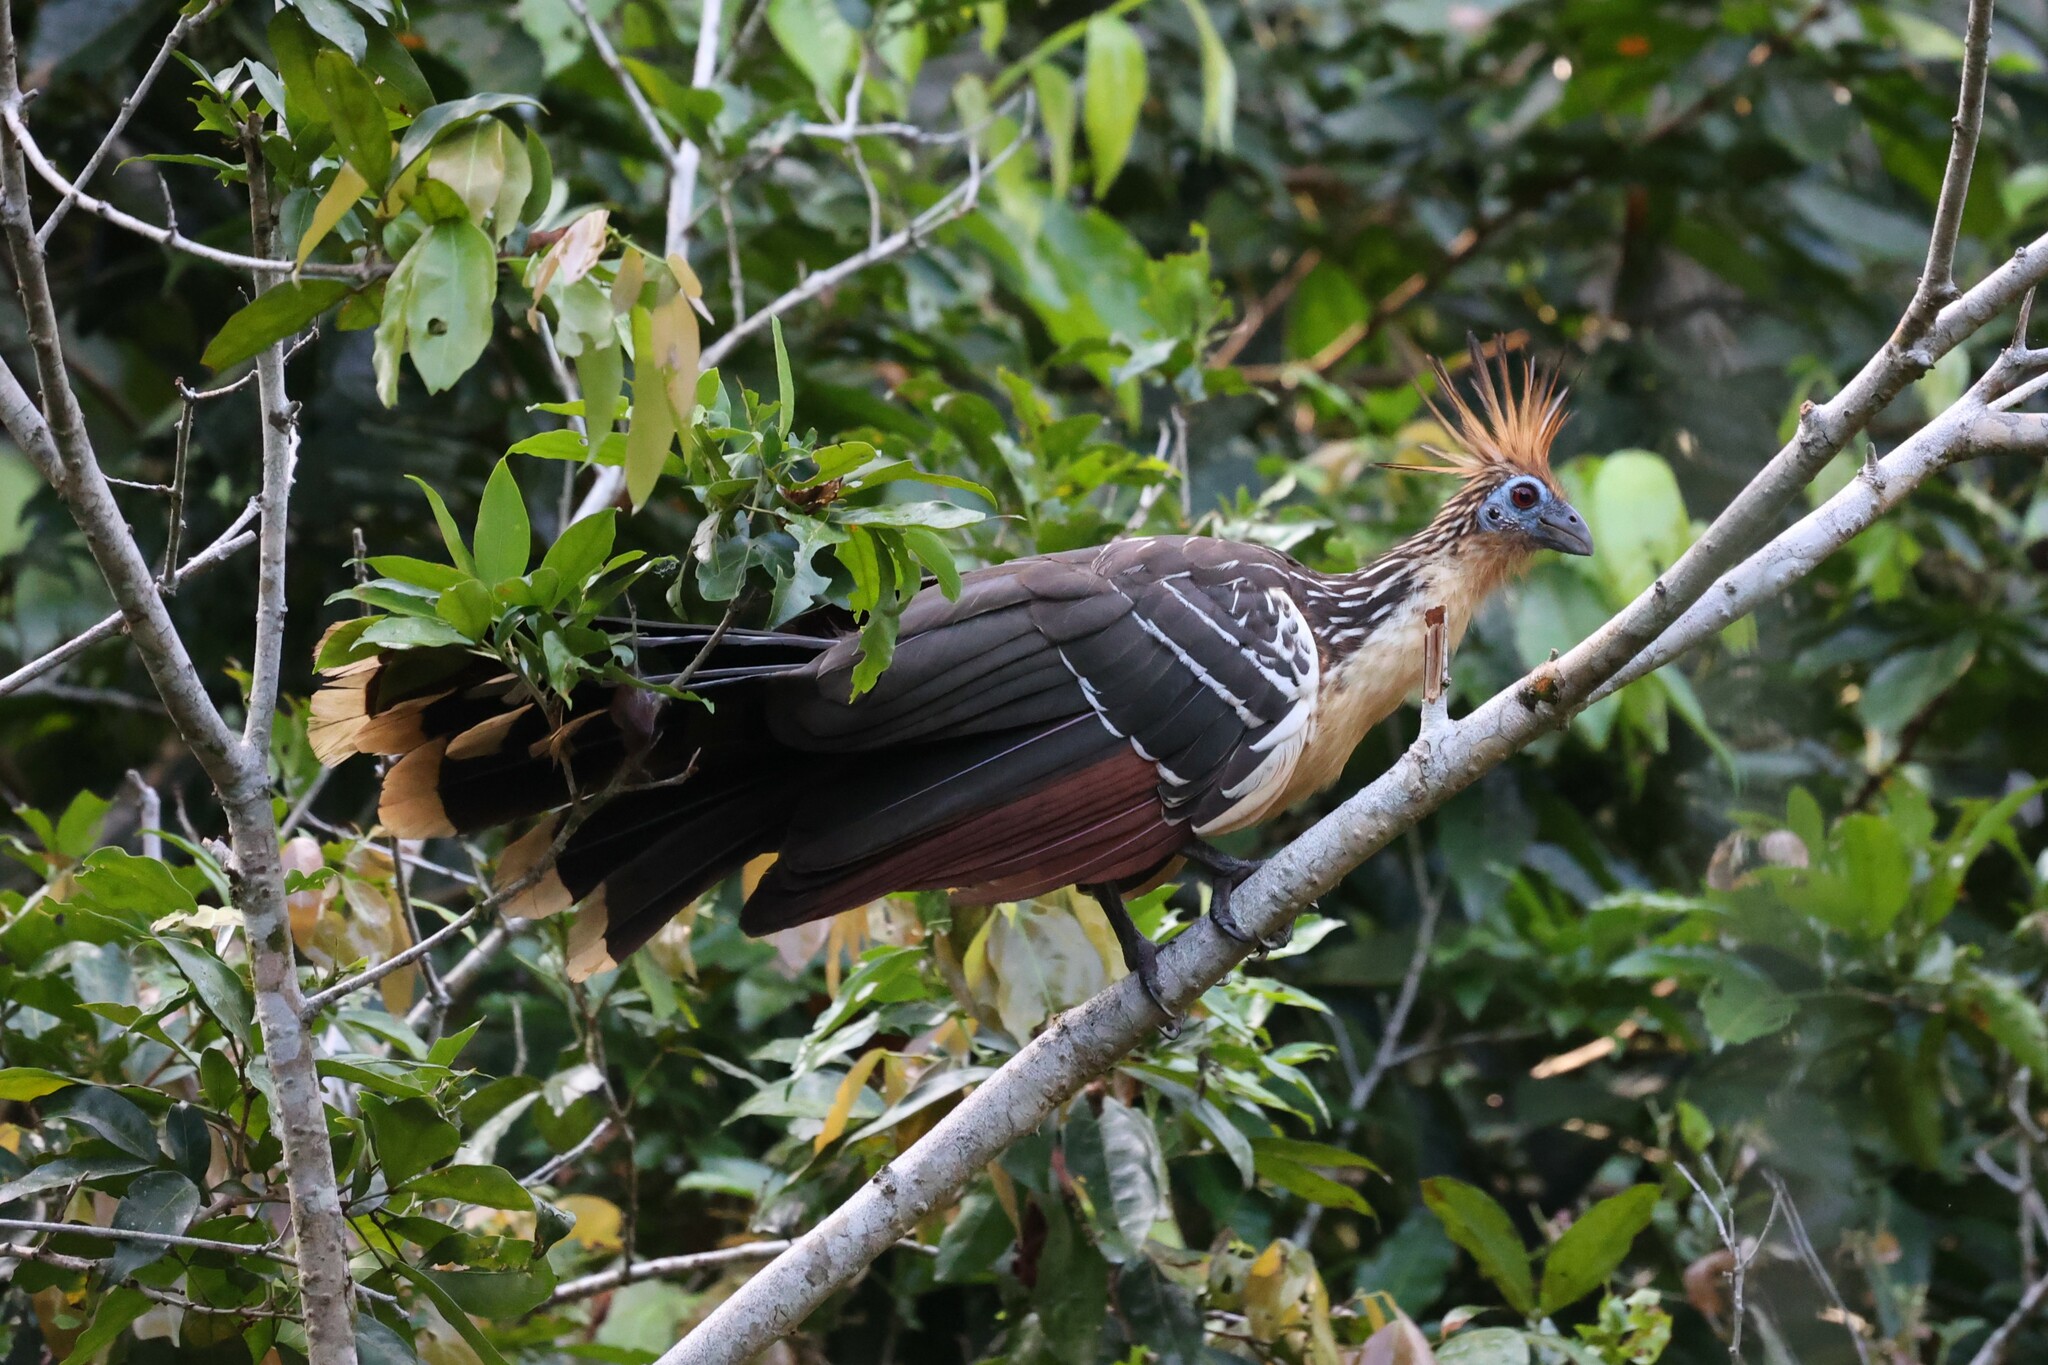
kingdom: Animalia
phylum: Chordata
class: Aves
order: Opisthocomiformes
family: Opisthocomidae
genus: Opisthocomus
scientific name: Opisthocomus hoazin
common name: Hoatzin
